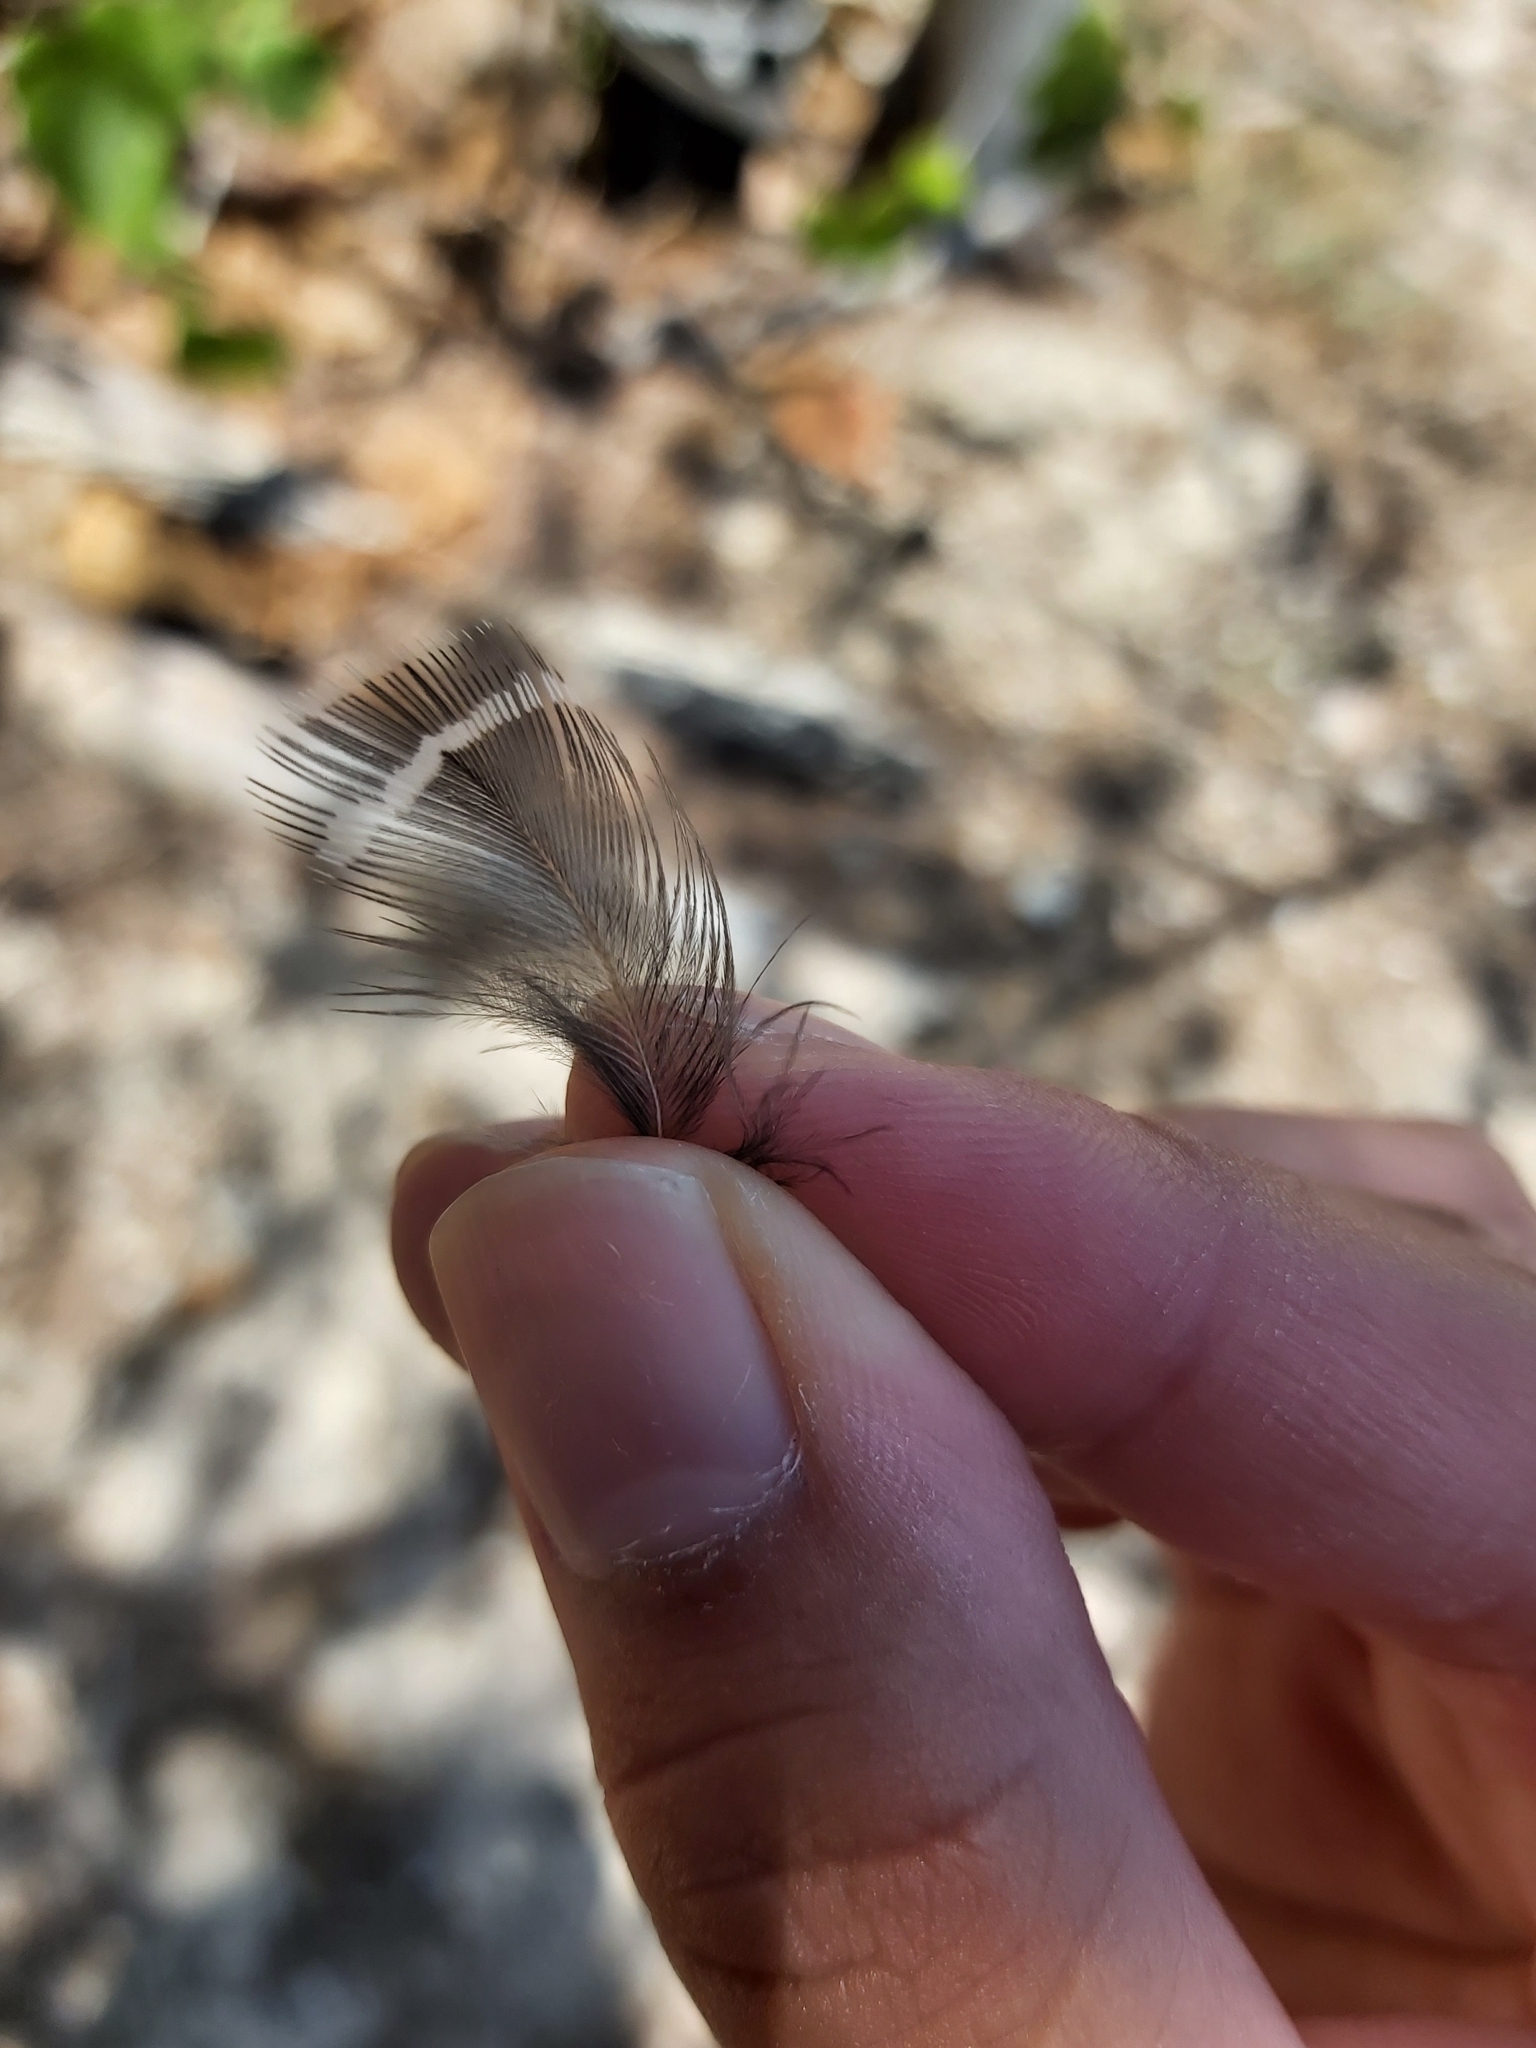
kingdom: Animalia
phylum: Chordata
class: Aves
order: Gruiformes
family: Rallidae
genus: Gallirallus
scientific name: Gallirallus philippensis
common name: Buff-banded rail
